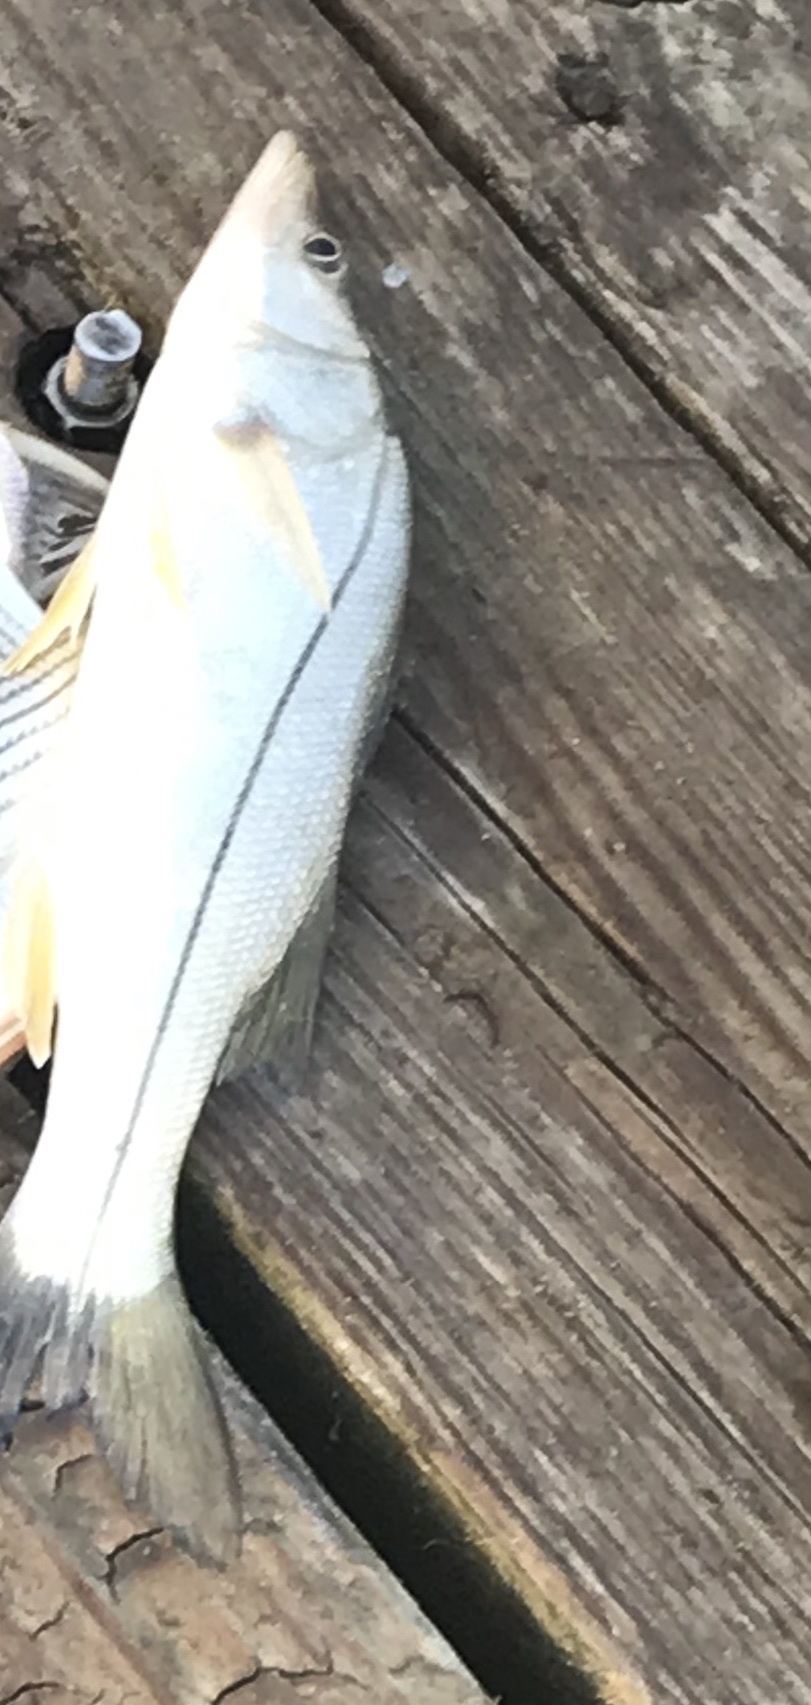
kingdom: Animalia
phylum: Chordata
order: Perciformes
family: Centropomidae
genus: Centropomus
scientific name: Centropomus undecimalis
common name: Snook
